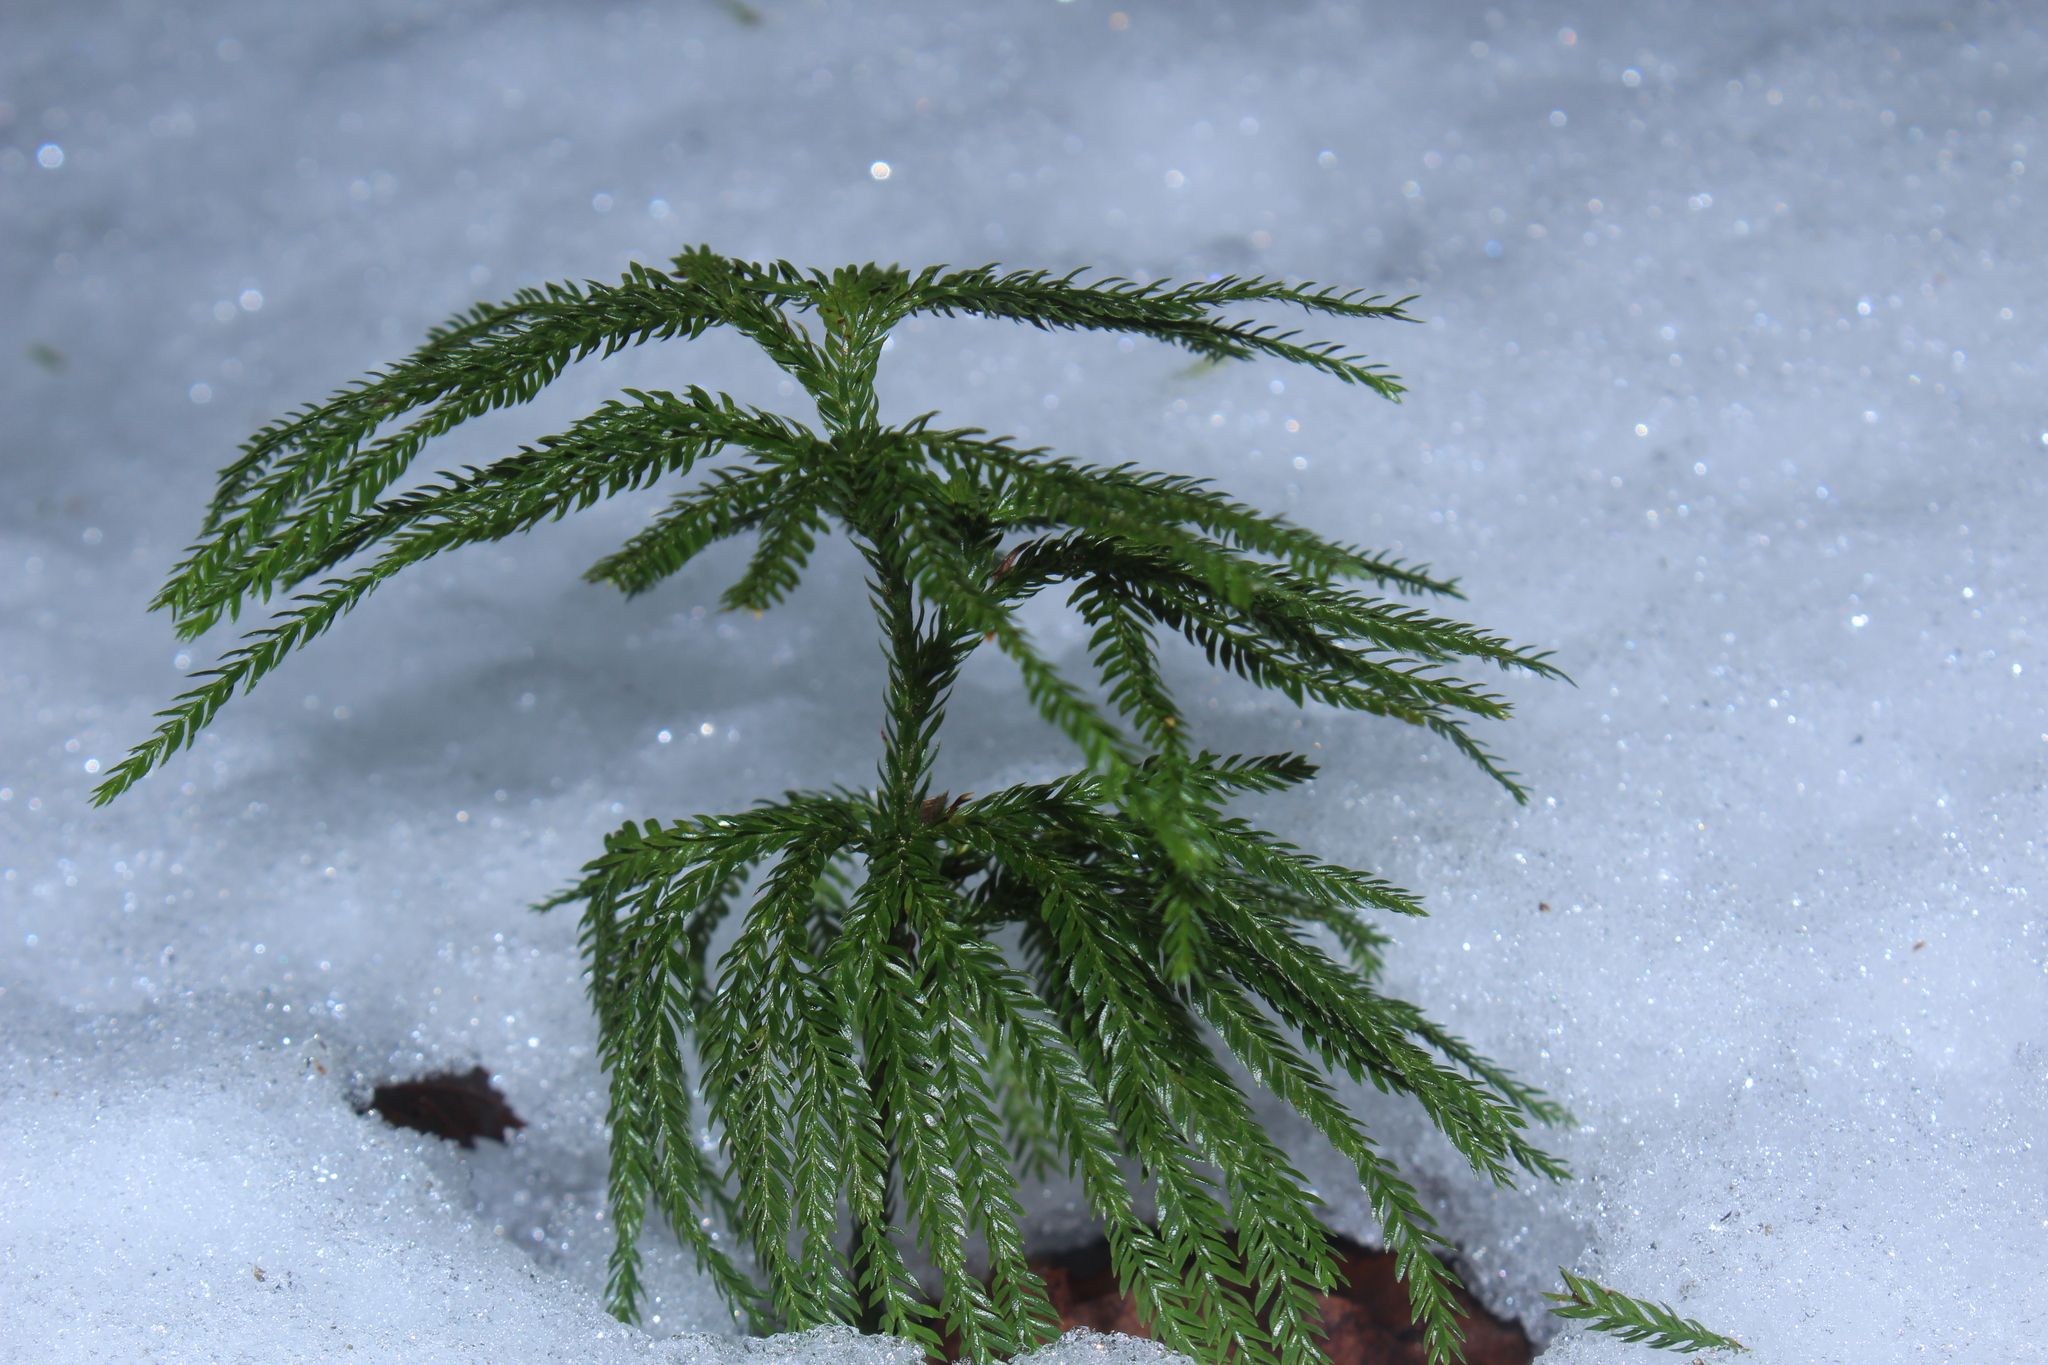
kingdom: Plantae
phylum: Tracheophyta
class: Lycopodiopsida
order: Lycopodiales
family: Lycopodiaceae
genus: Dendrolycopodium
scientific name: Dendrolycopodium obscurum
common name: Common ground-pine
